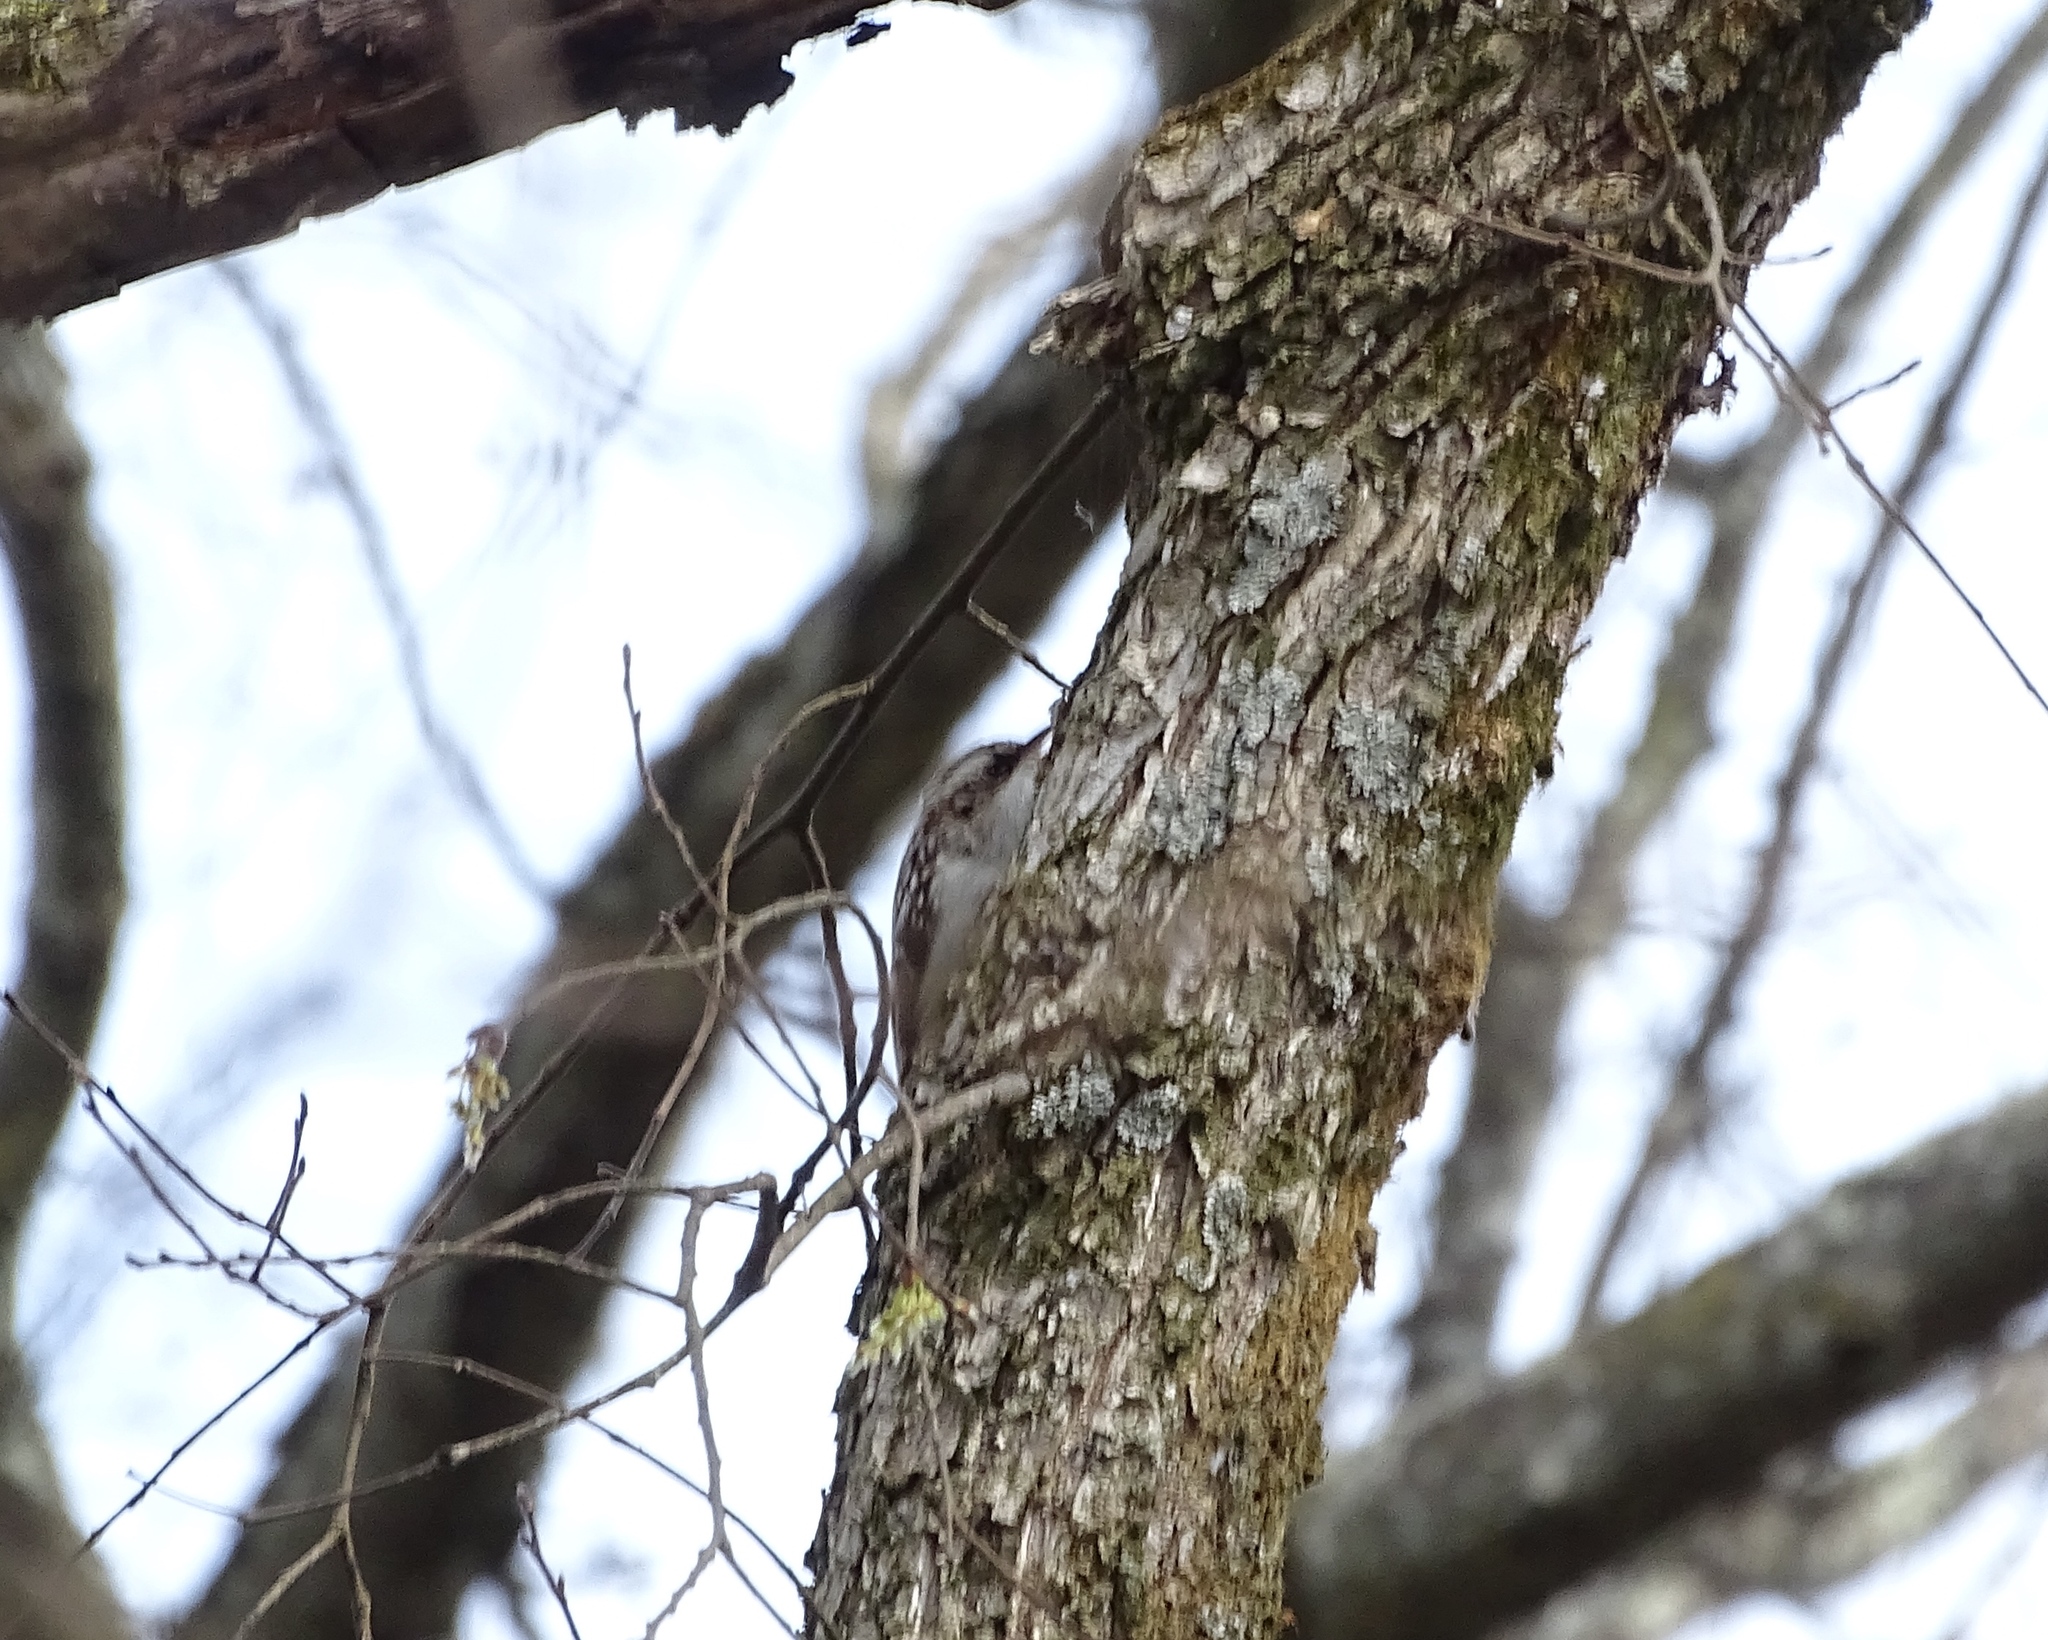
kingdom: Animalia
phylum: Chordata
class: Aves
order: Passeriformes
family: Certhiidae
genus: Certhia
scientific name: Certhia americana
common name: Brown creeper
